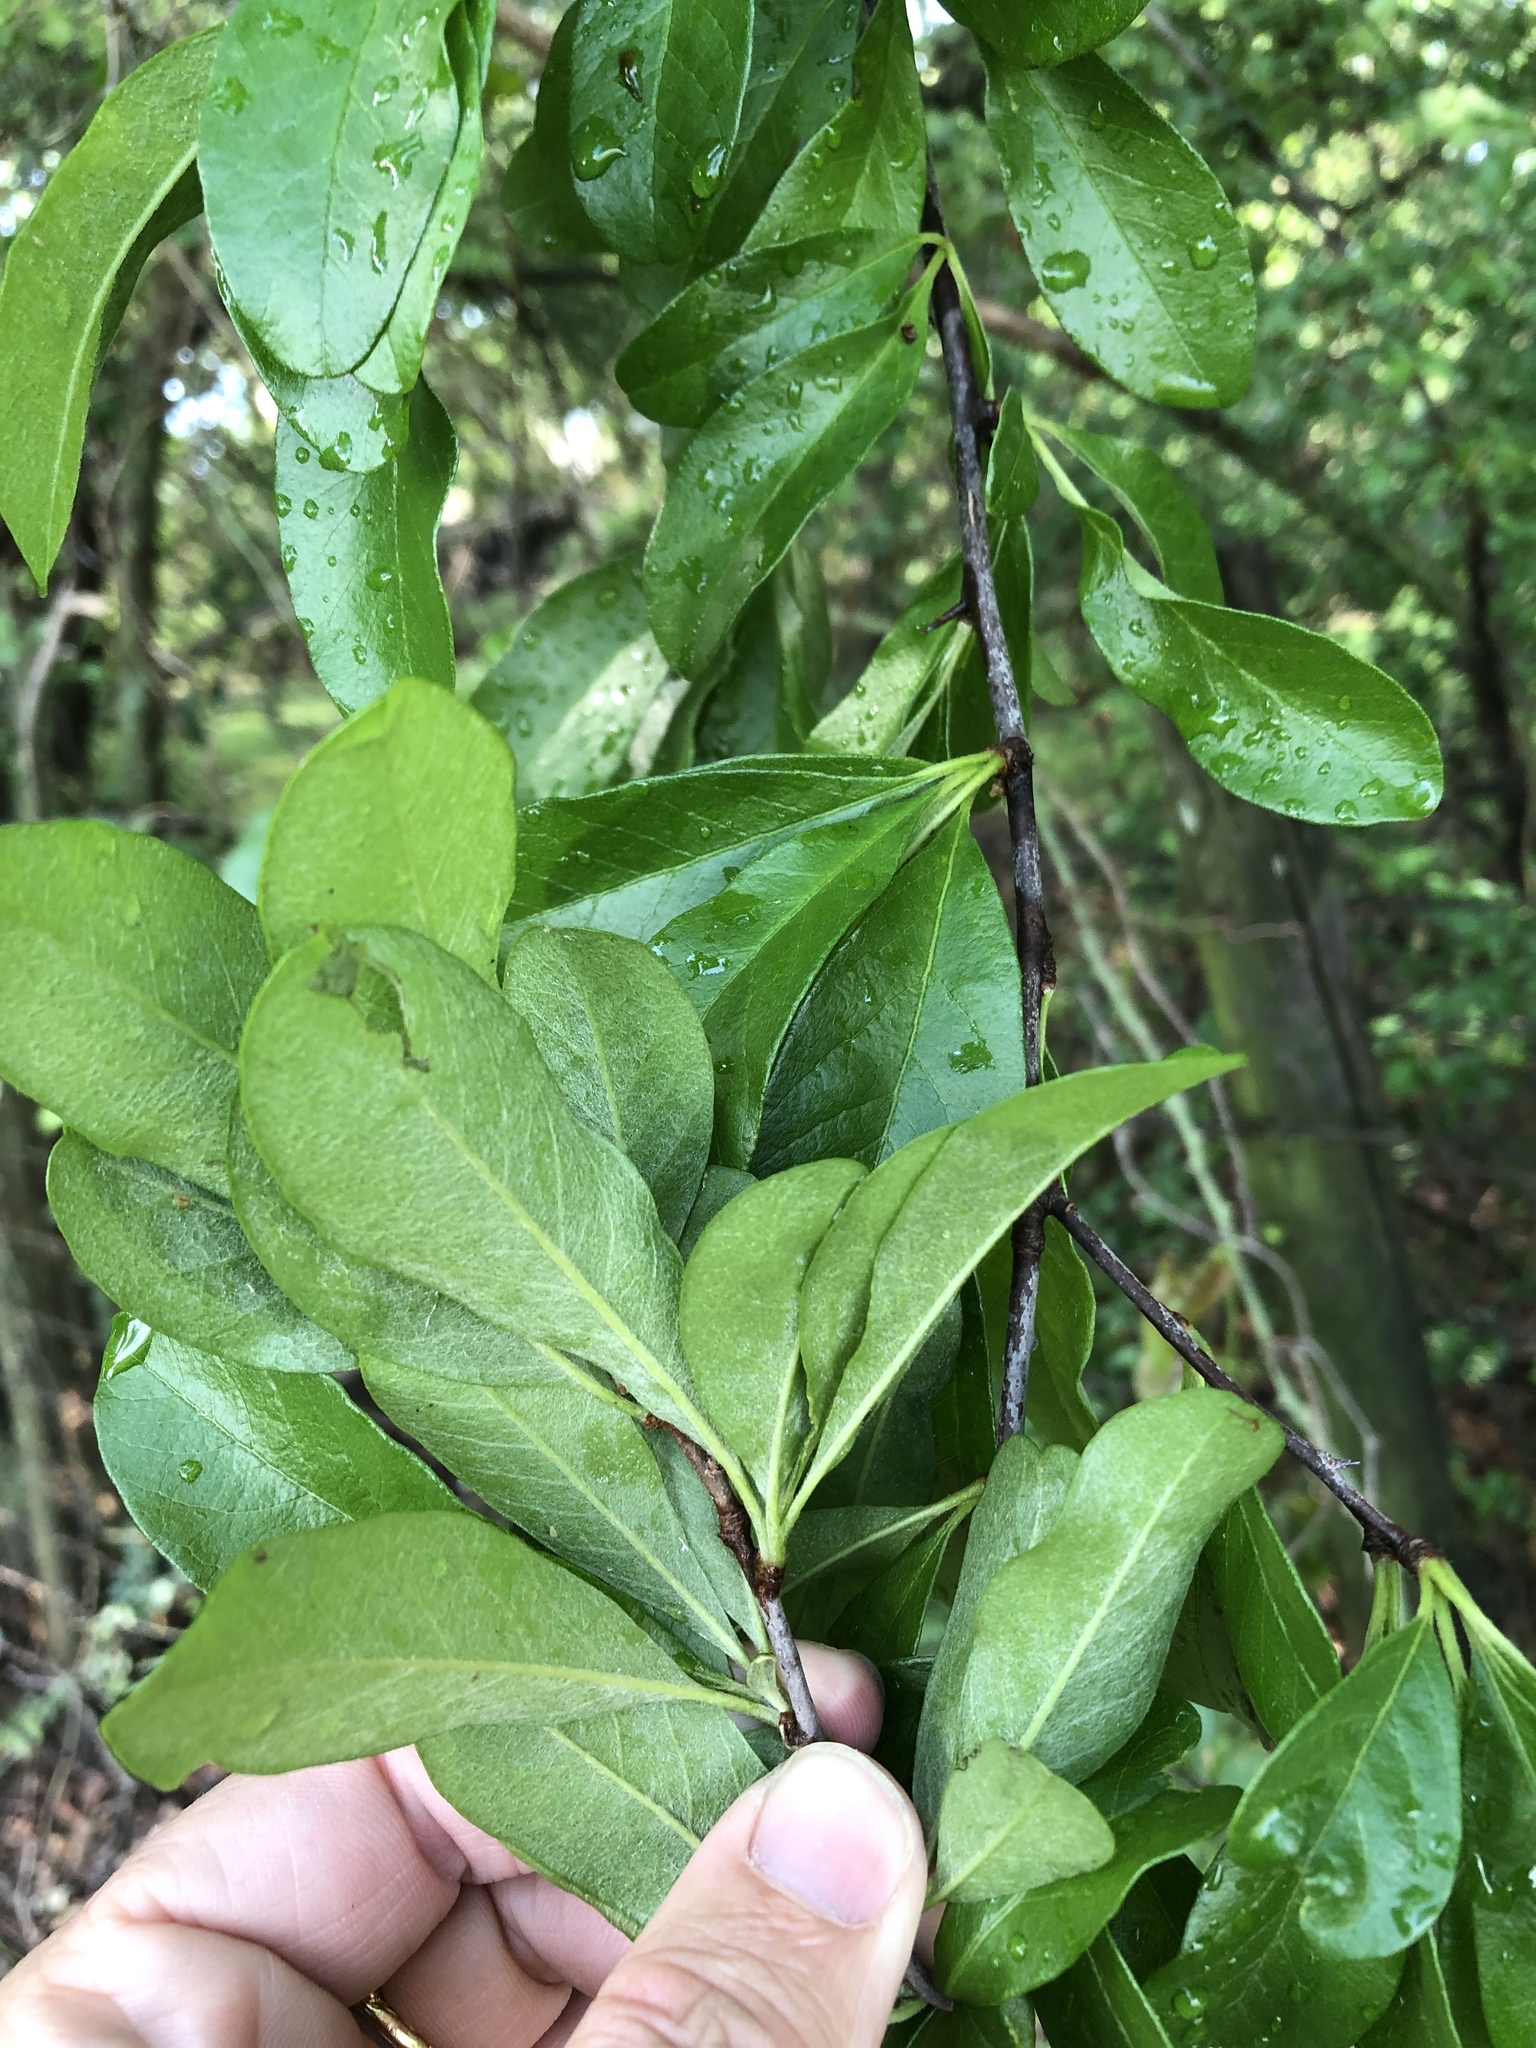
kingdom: Plantae
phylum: Tracheophyta
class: Magnoliopsida
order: Ericales
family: Sapotaceae
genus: Sideroxylon
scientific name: Sideroxylon lanuginosum
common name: Chittamwood
